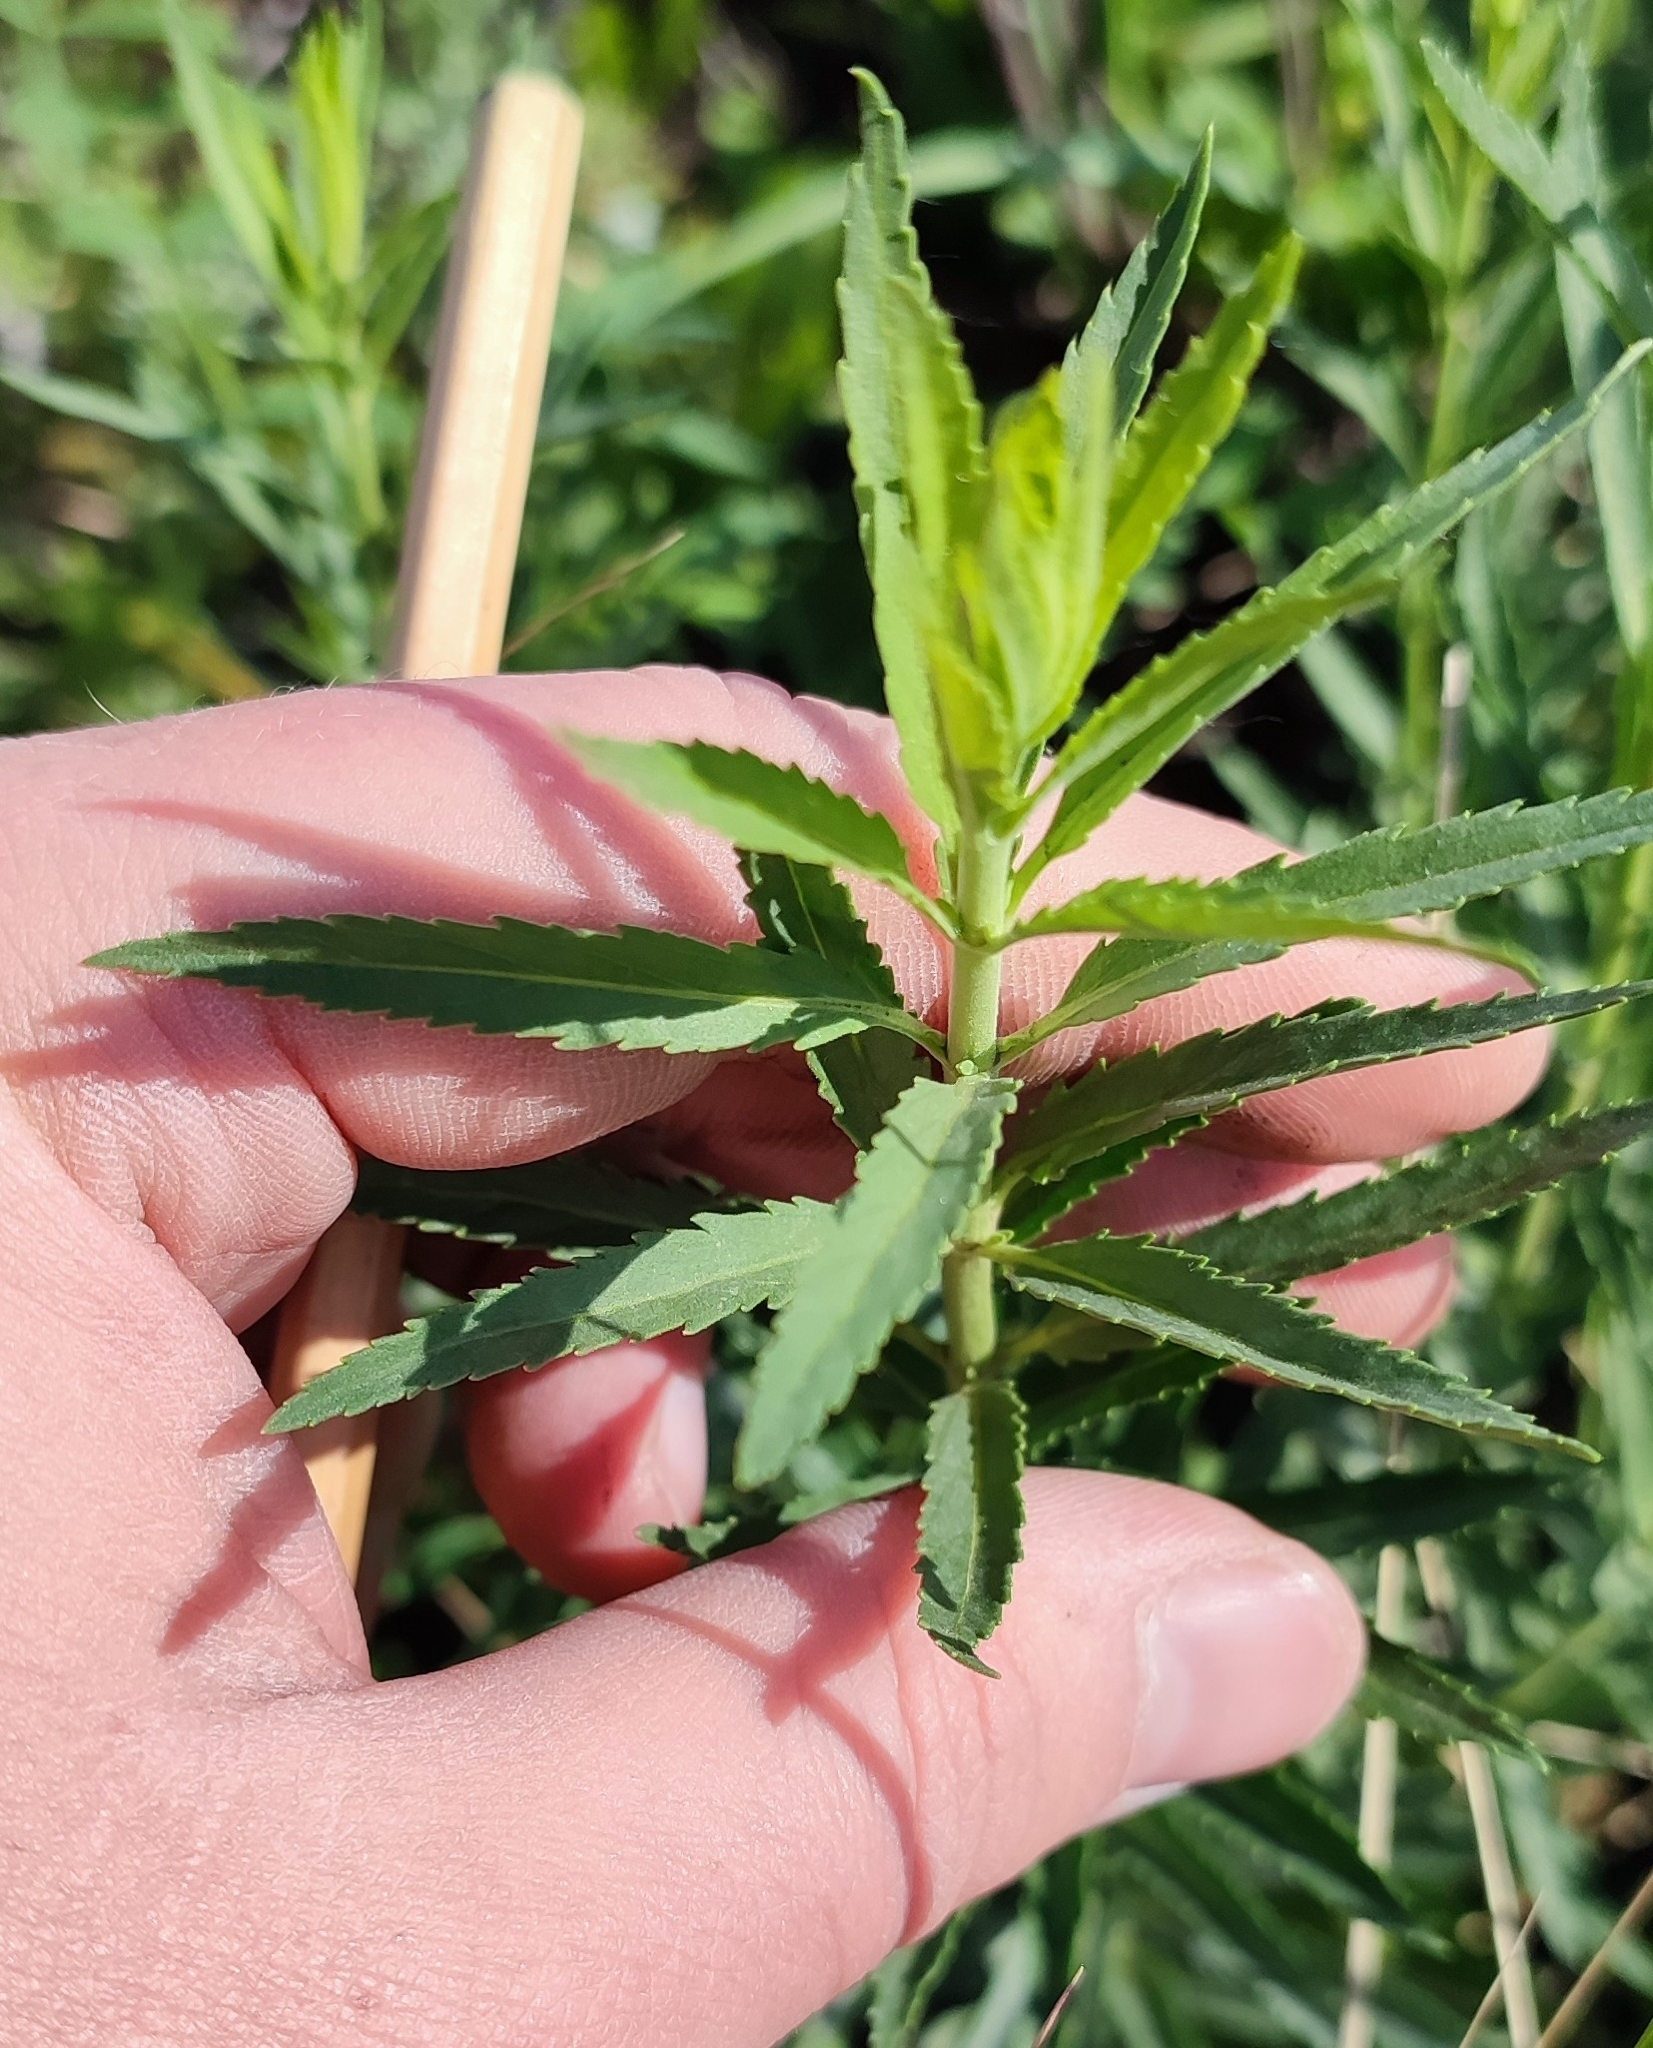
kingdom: Plantae
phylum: Tracheophyta
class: Magnoliopsida
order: Lamiales
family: Plantaginaceae
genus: Veronica
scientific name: Veronica longifolia
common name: Garden speedwell
